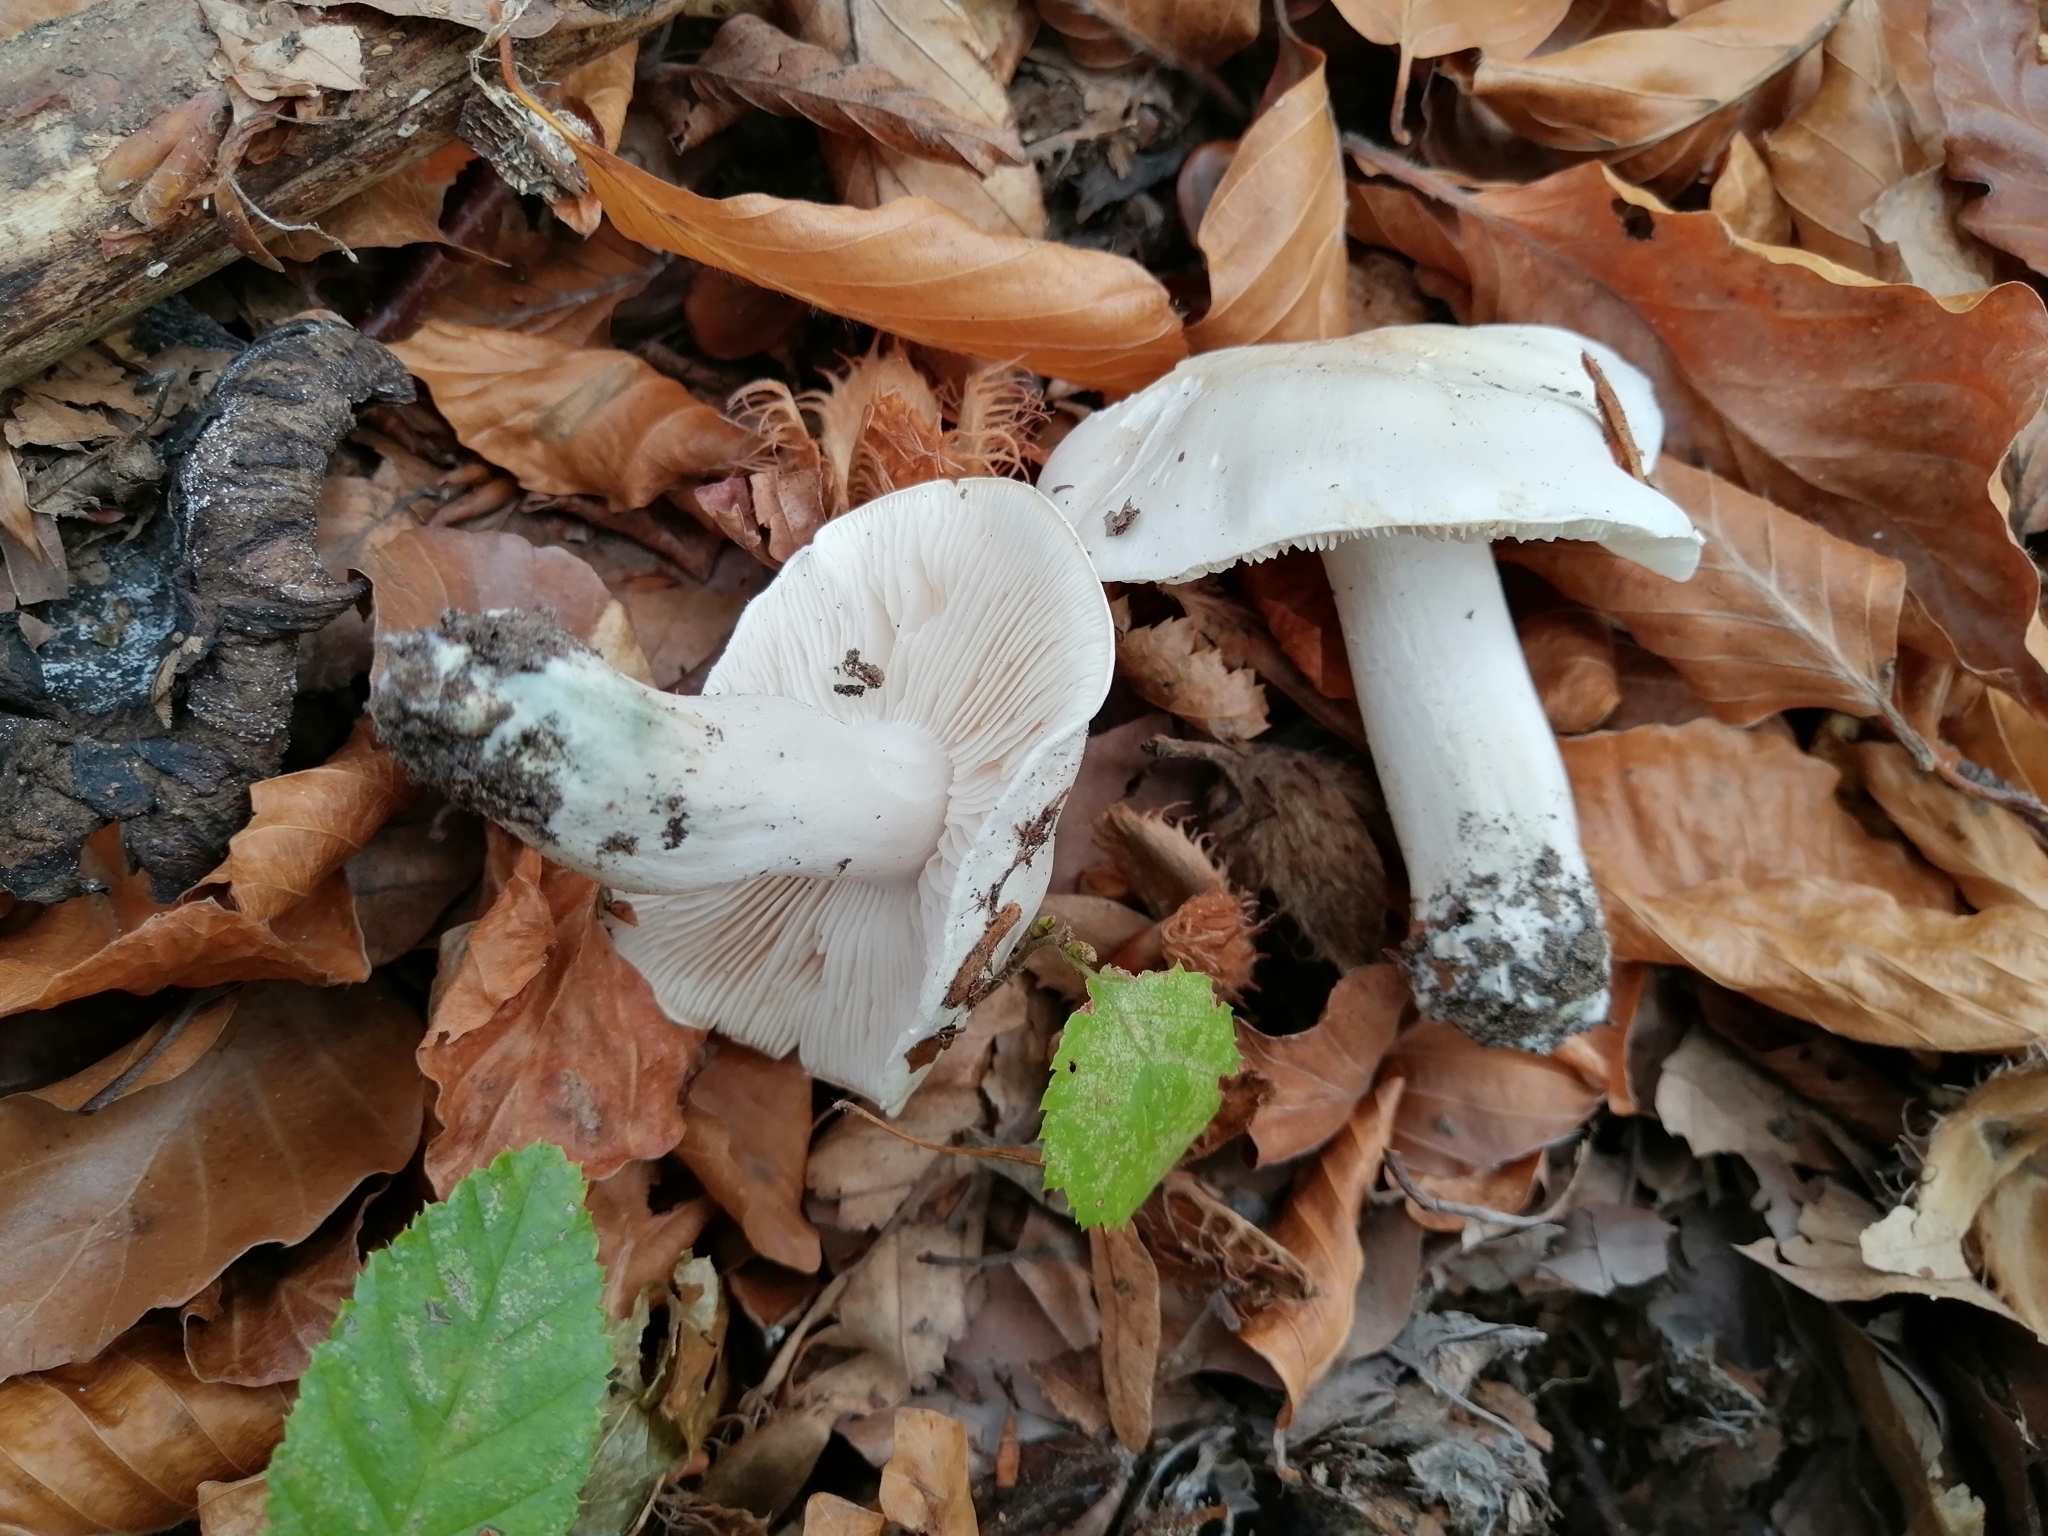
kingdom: Fungi
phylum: Basidiomycota
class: Agaricomycetes
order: Agaricales
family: Tricholomataceae
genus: Tricholoma
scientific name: Tricholoma columbetta
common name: Blue spot knight
